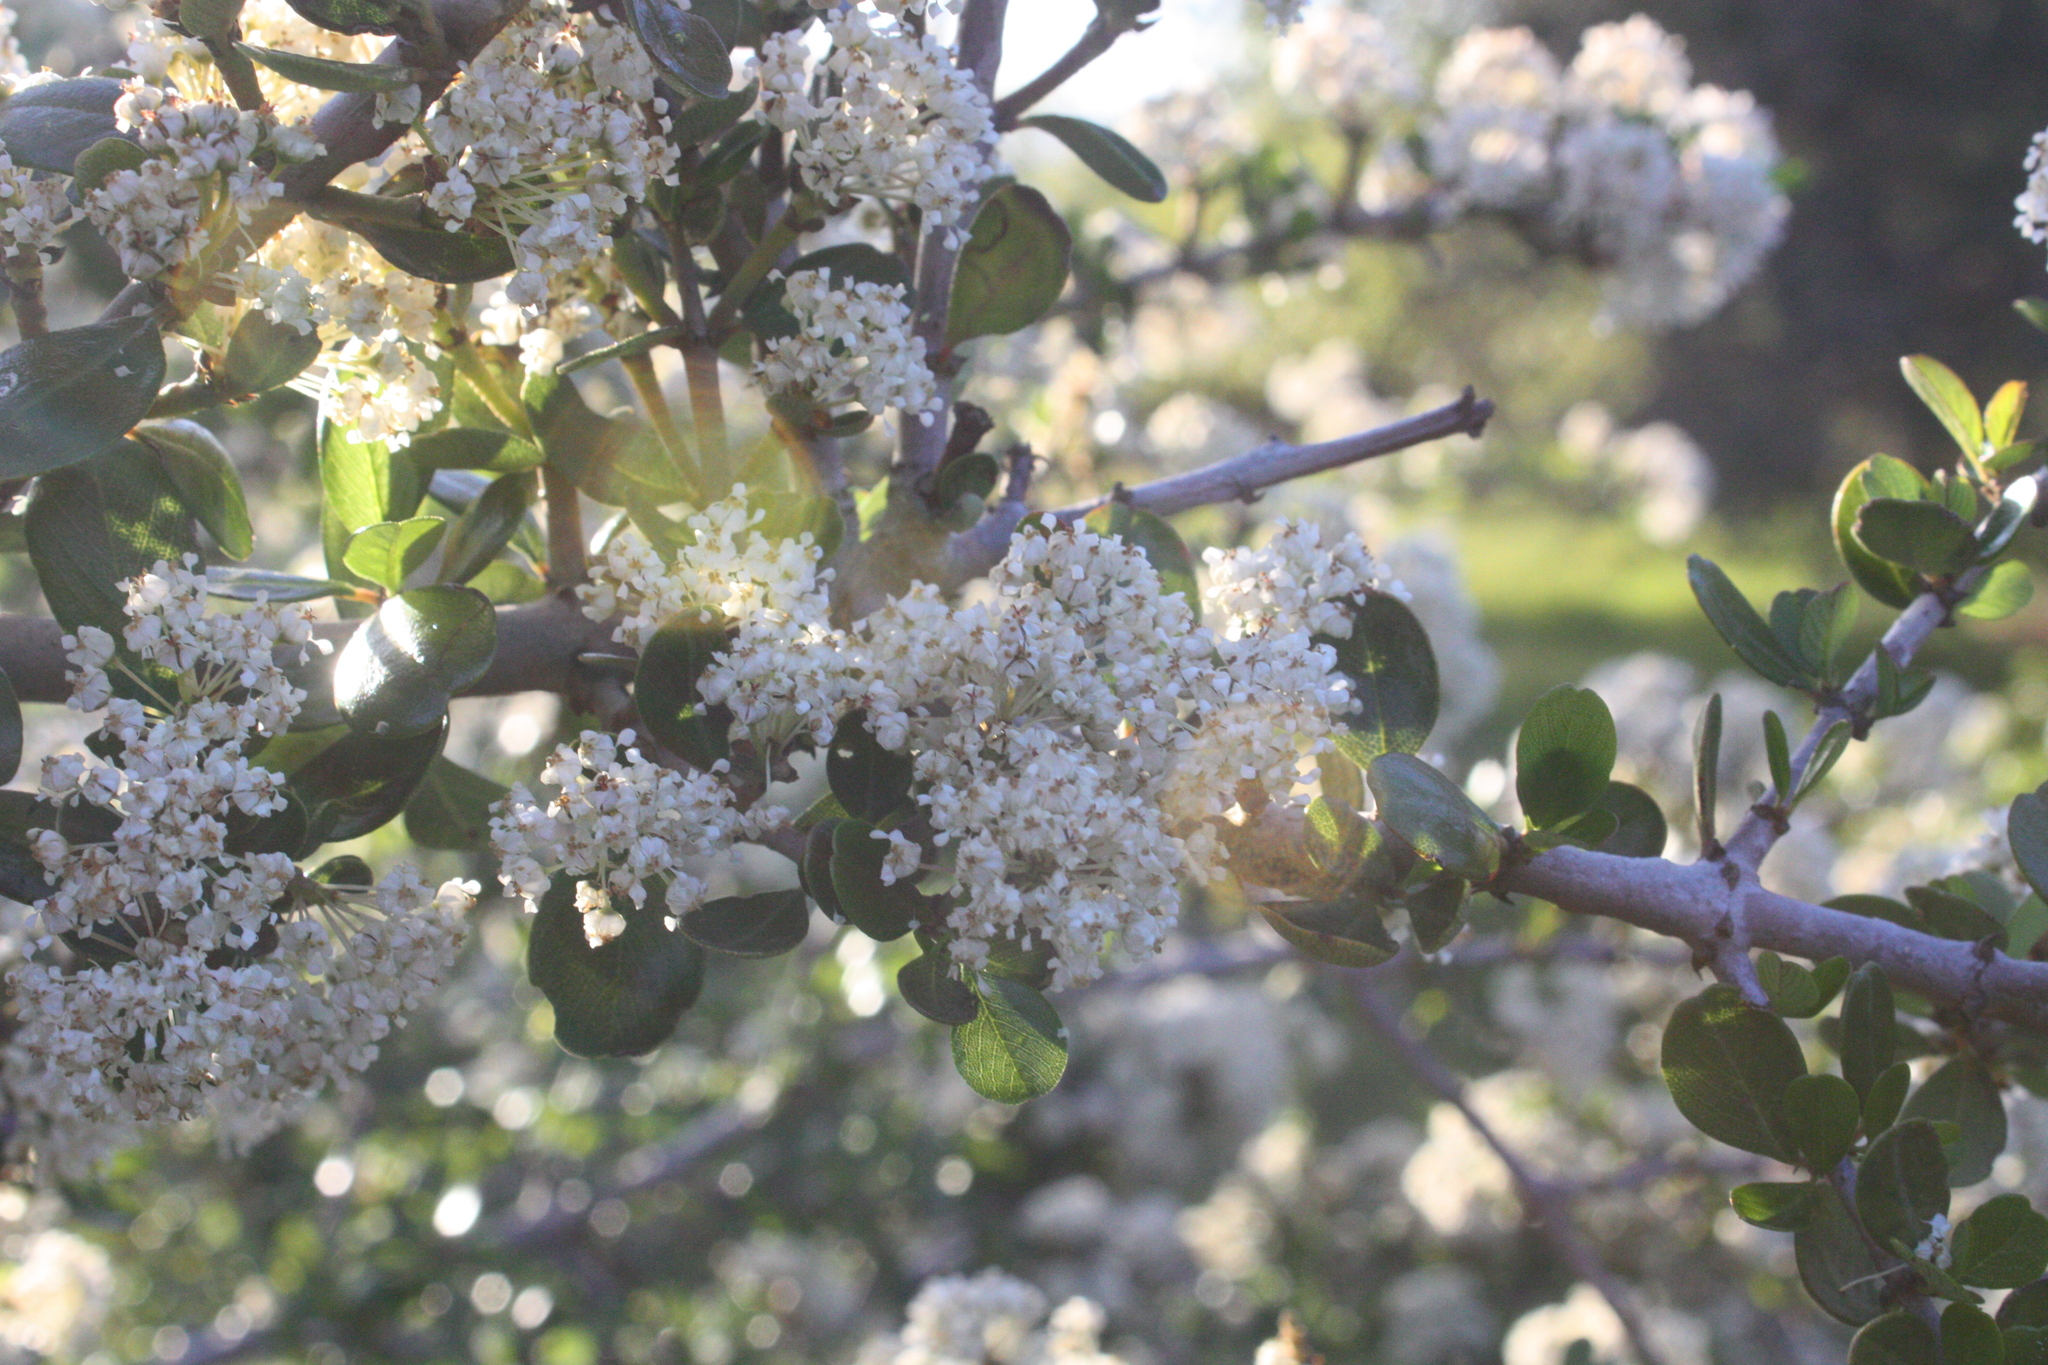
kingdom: Plantae
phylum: Tracheophyta
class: Magnoliopsida
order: Rosales
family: Rhamnaceae
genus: Ceanothus
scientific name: Ceanothus cuneatus
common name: Cuneate ceanothus
